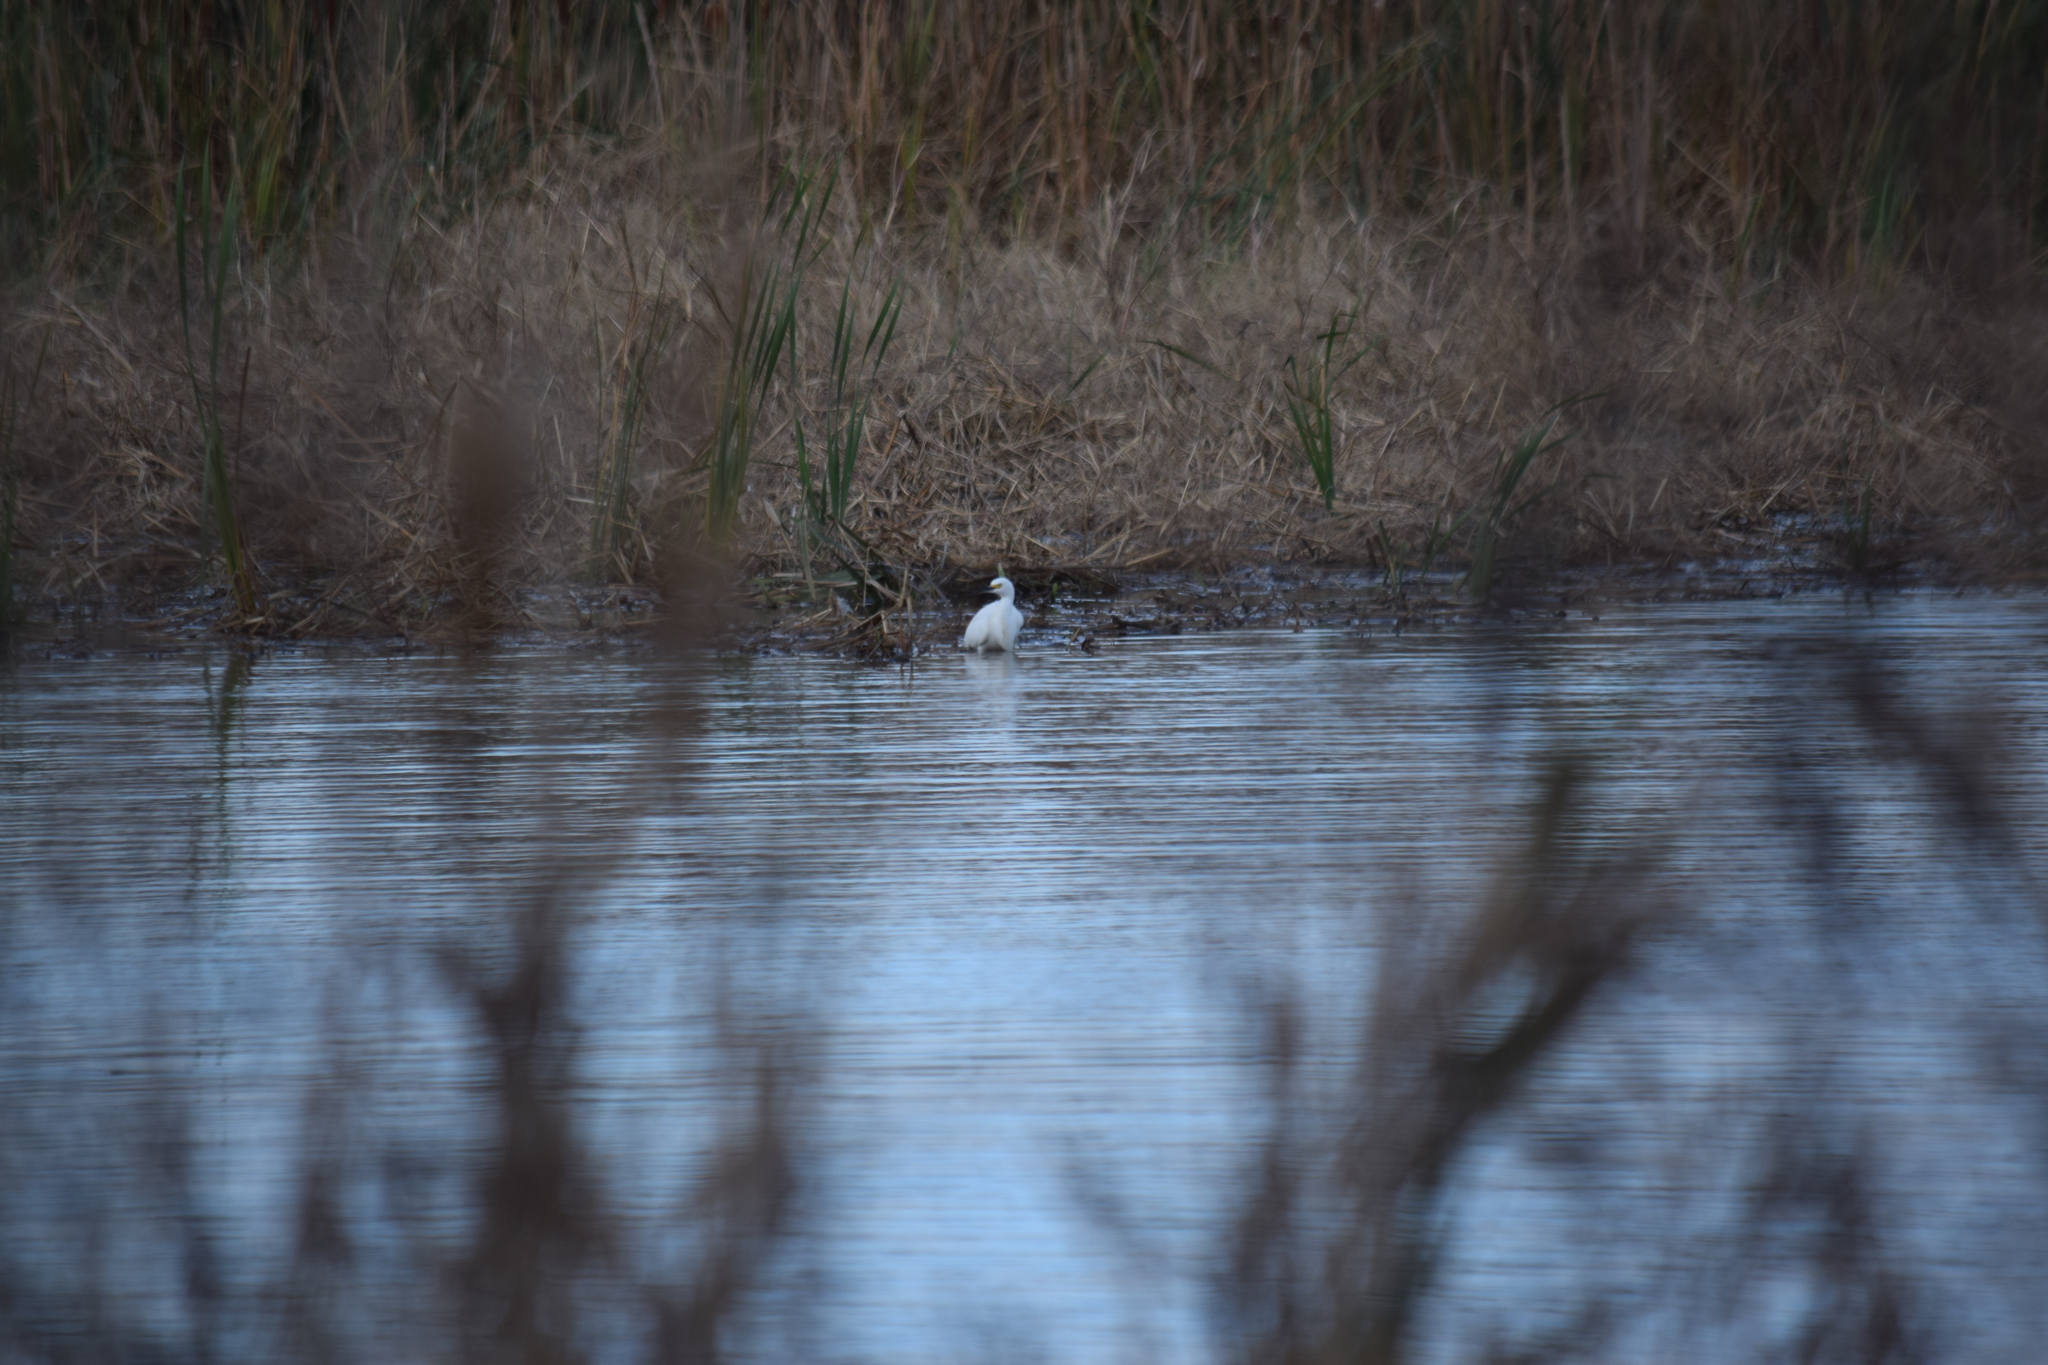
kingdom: Animalia
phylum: Chordata
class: Aves
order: Pelecaniformes
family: Ardeidae
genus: Egretta
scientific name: Egretta thula
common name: Snowy egret
